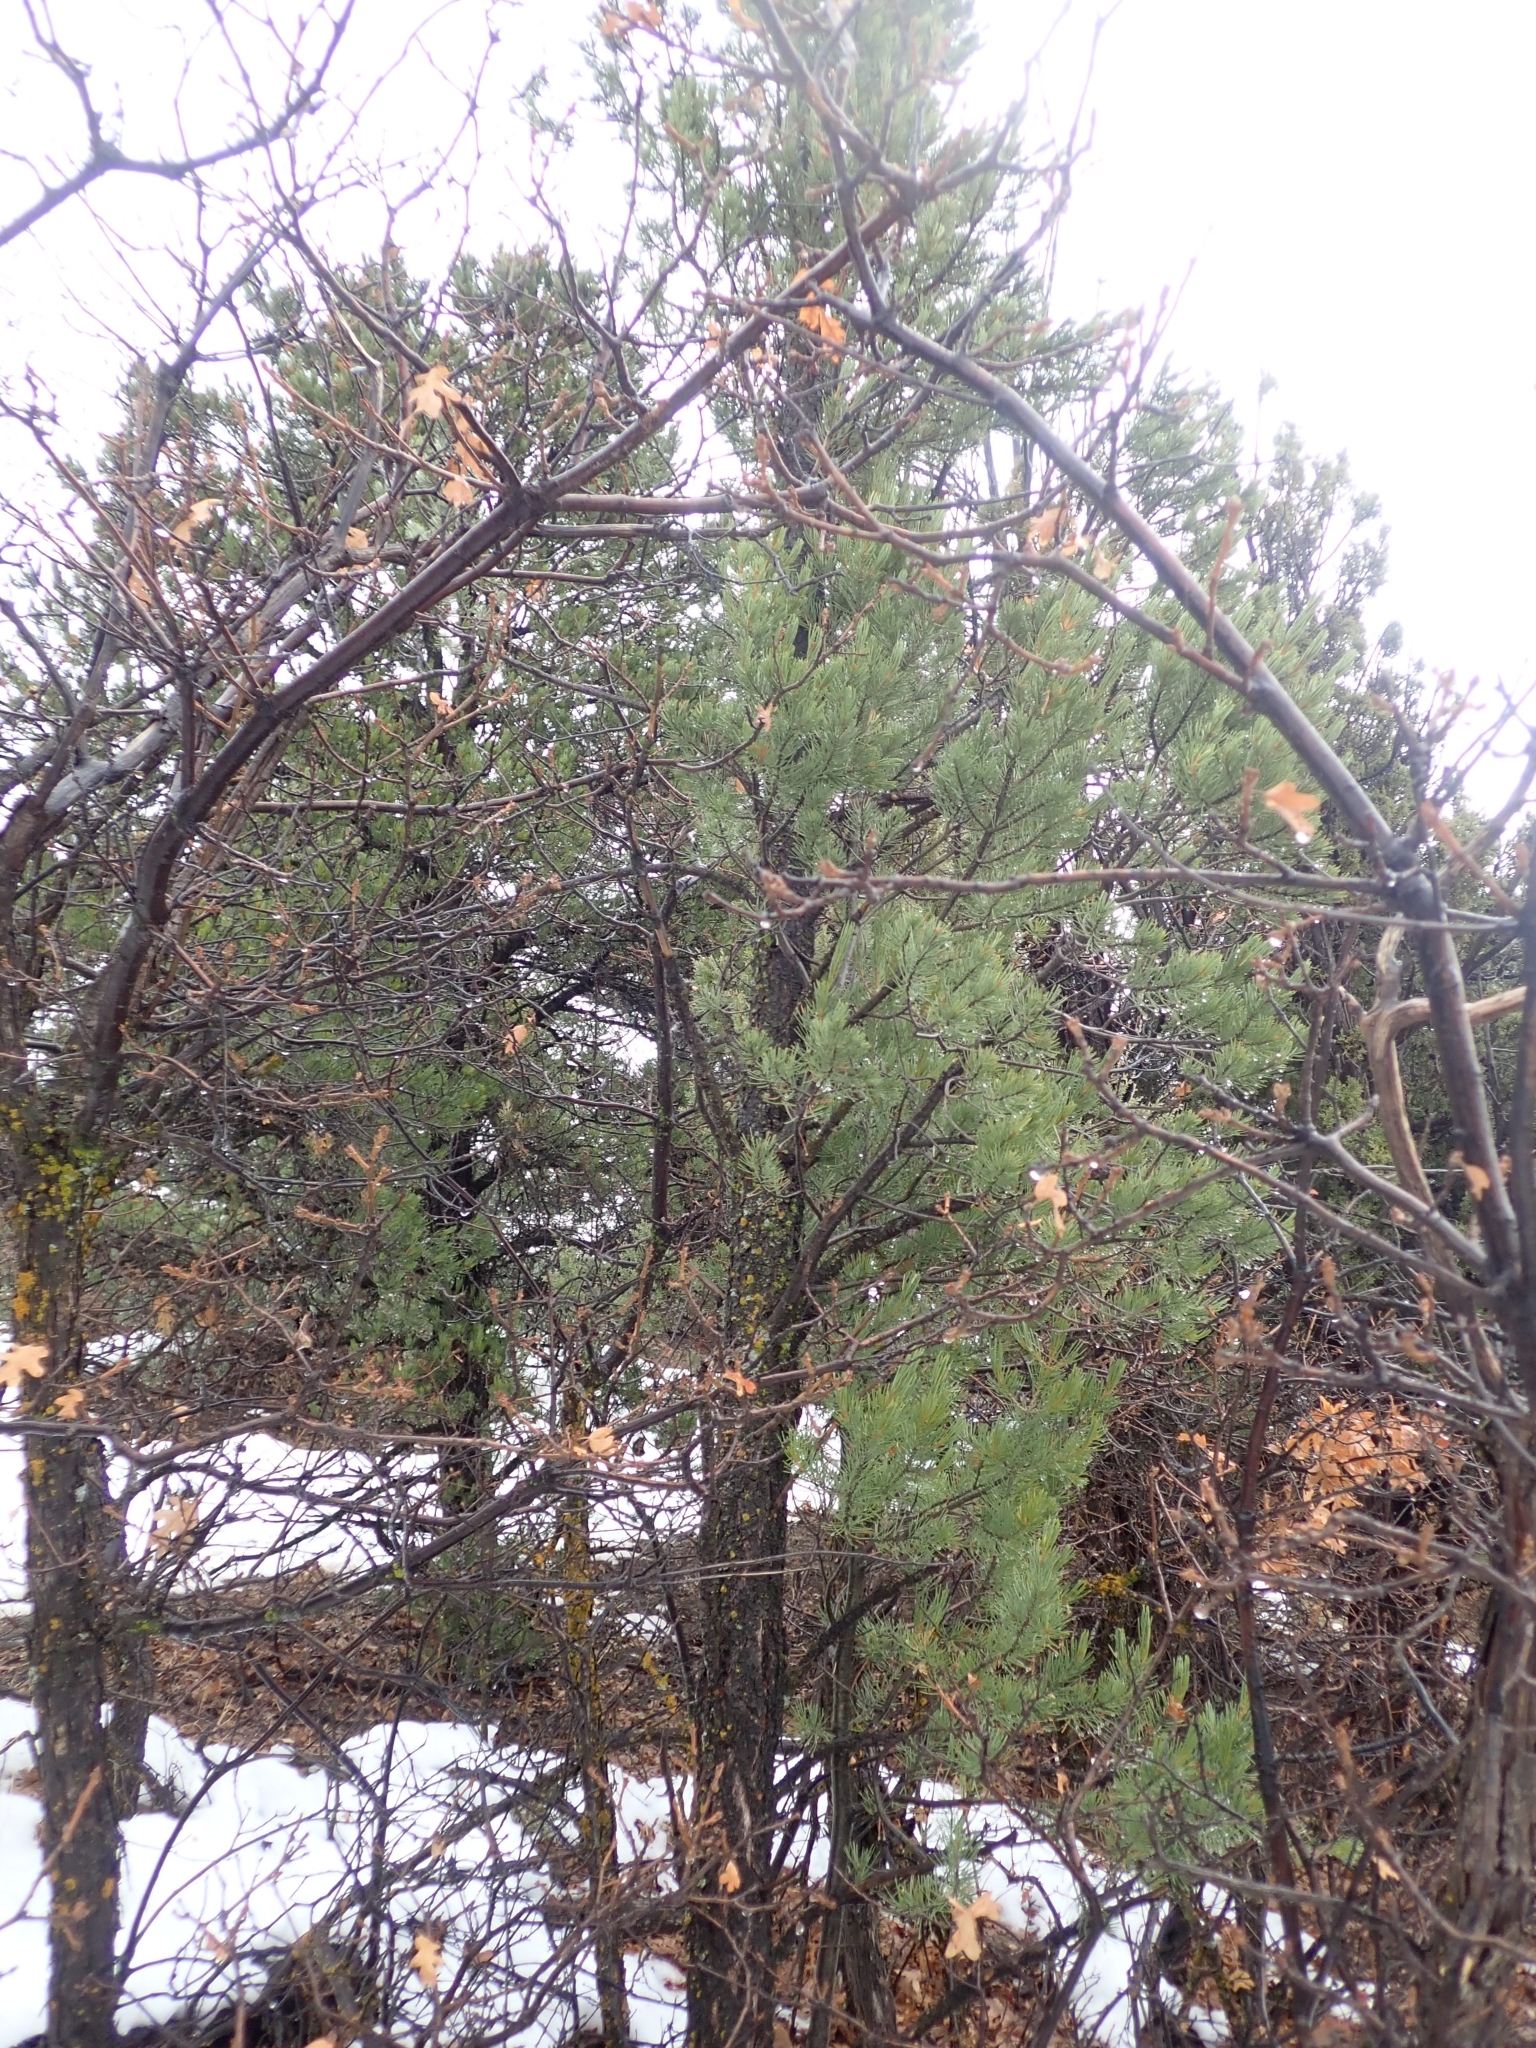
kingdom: Plantae
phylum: Tracheophyta
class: Pinopsida
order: Pinales
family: Pinaceae
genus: Pinus
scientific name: Pinus monophylla
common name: One-leaved nut pine
